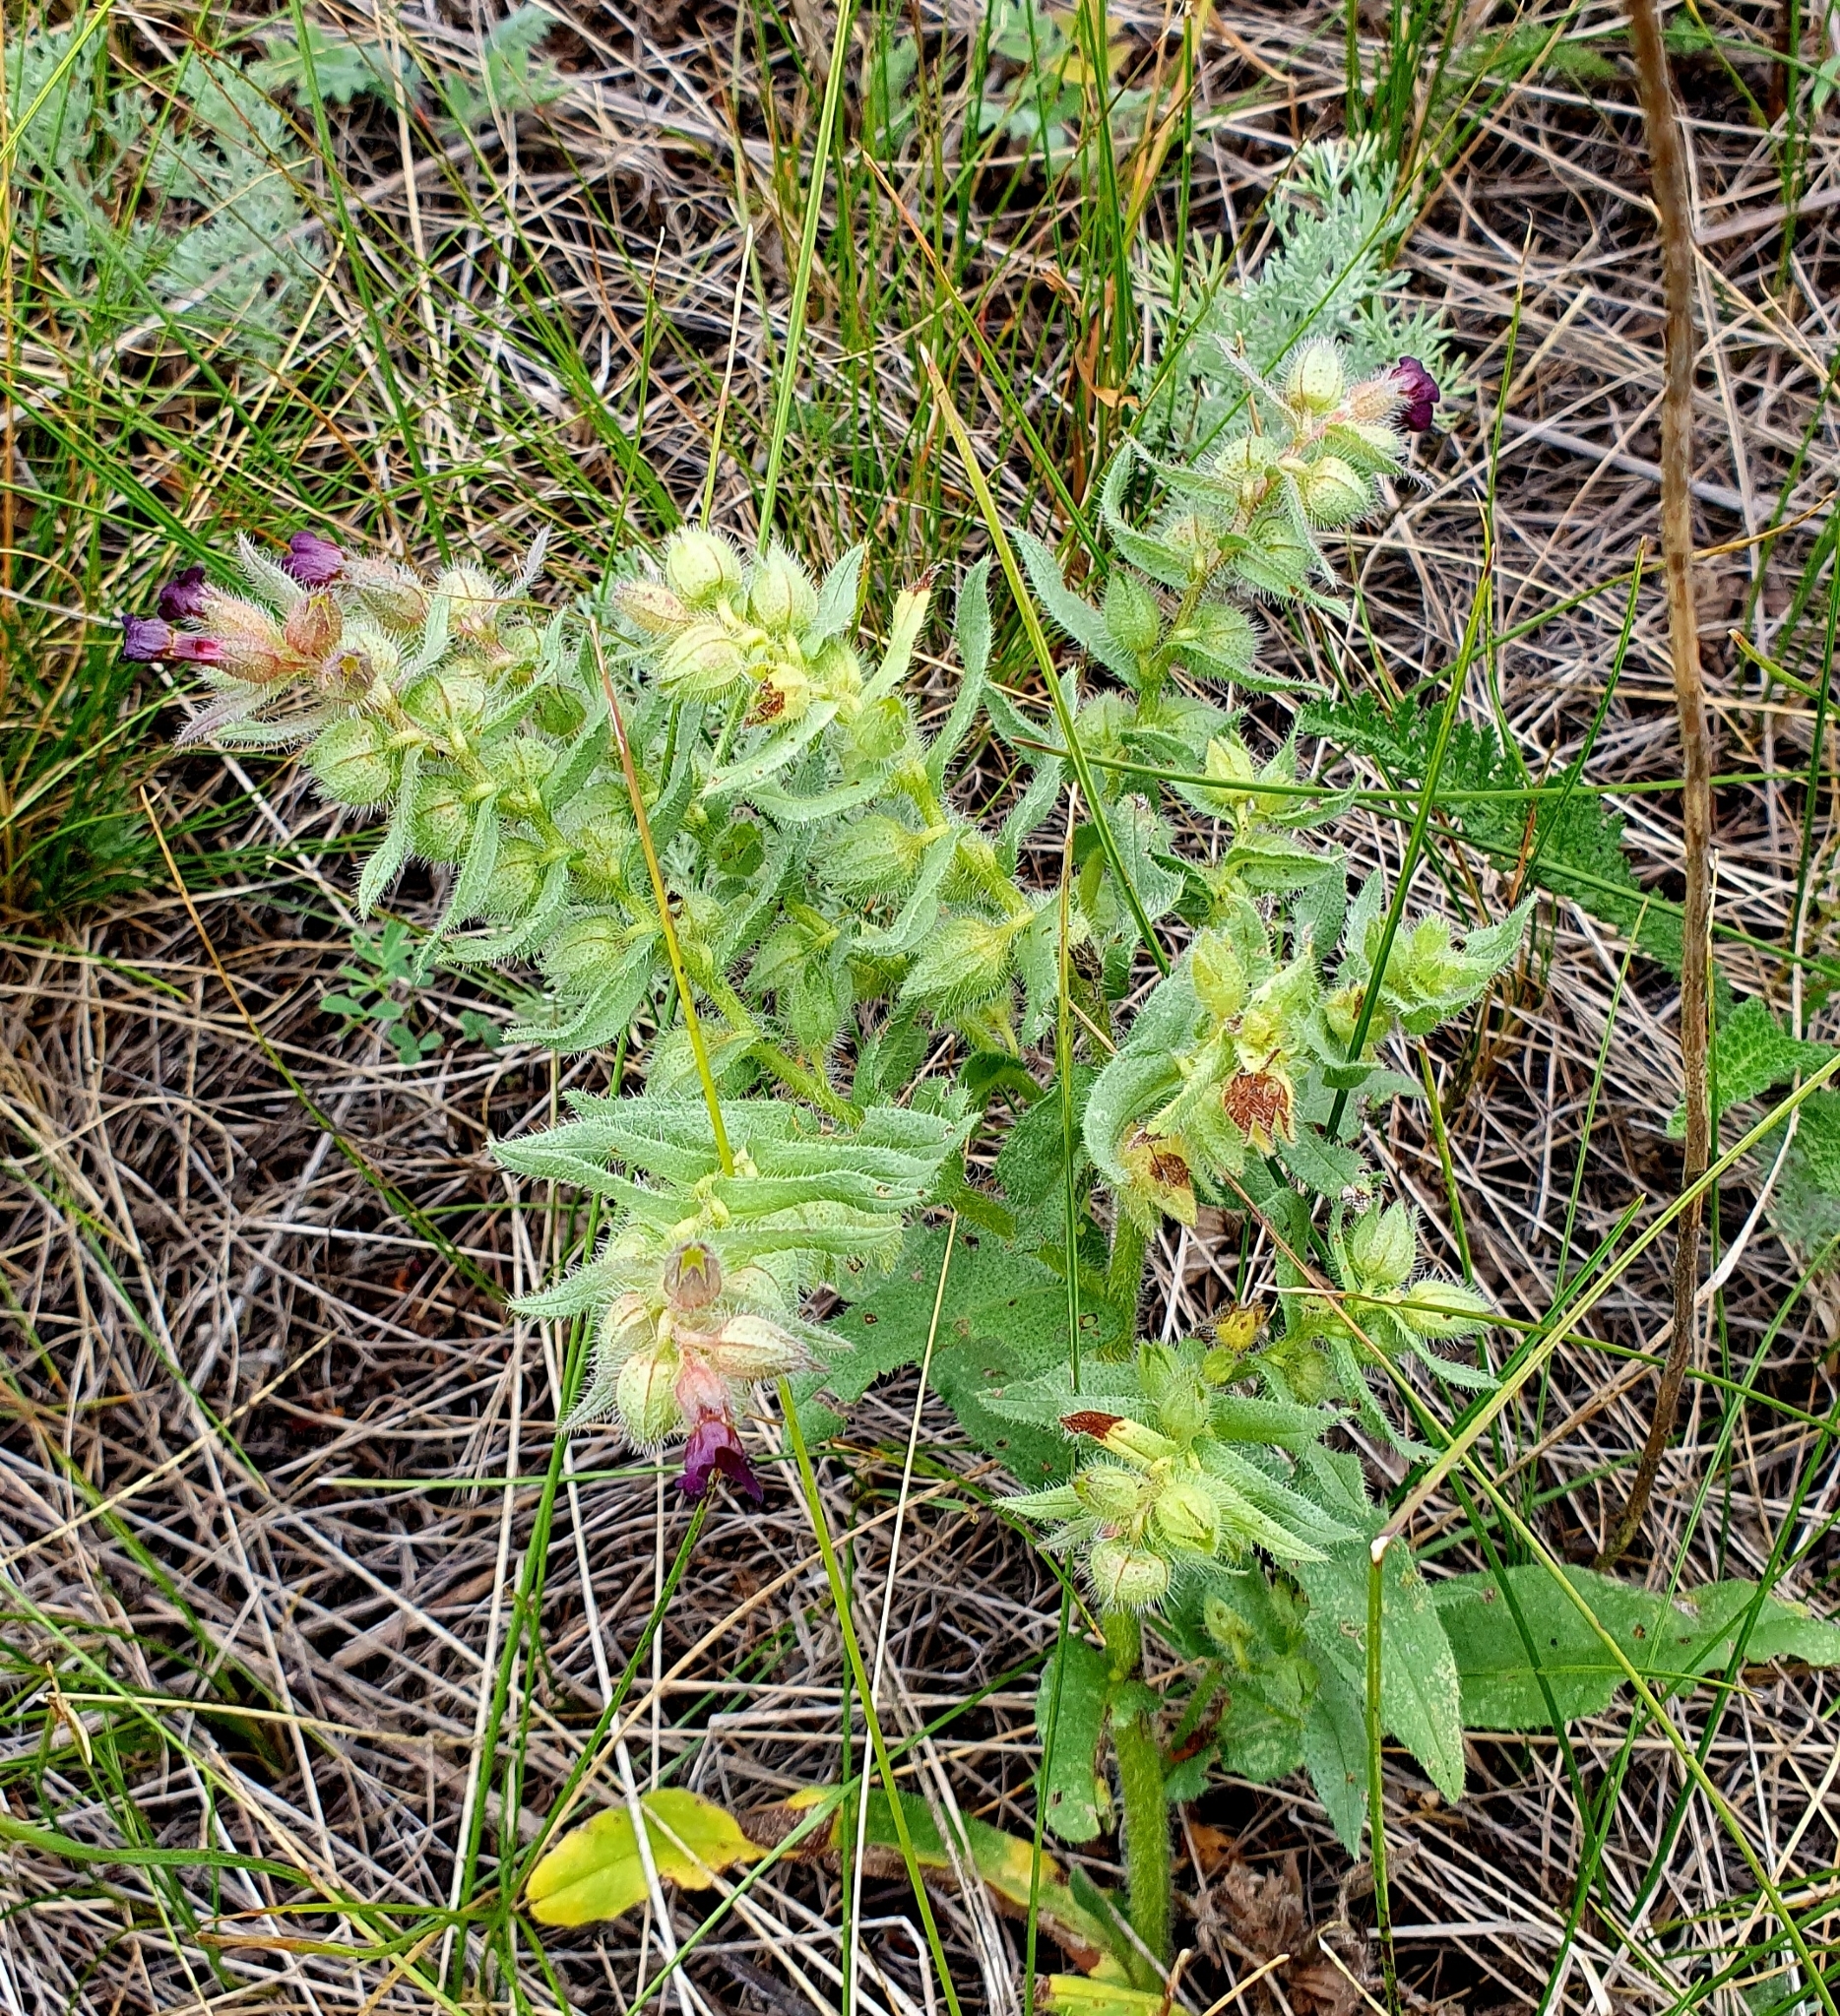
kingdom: Plantae
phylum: Tracheophyta
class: Magnoliopsida
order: Boraginales
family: Boraginaceae
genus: Nonea
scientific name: Nonea pulla
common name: Brown nonea
